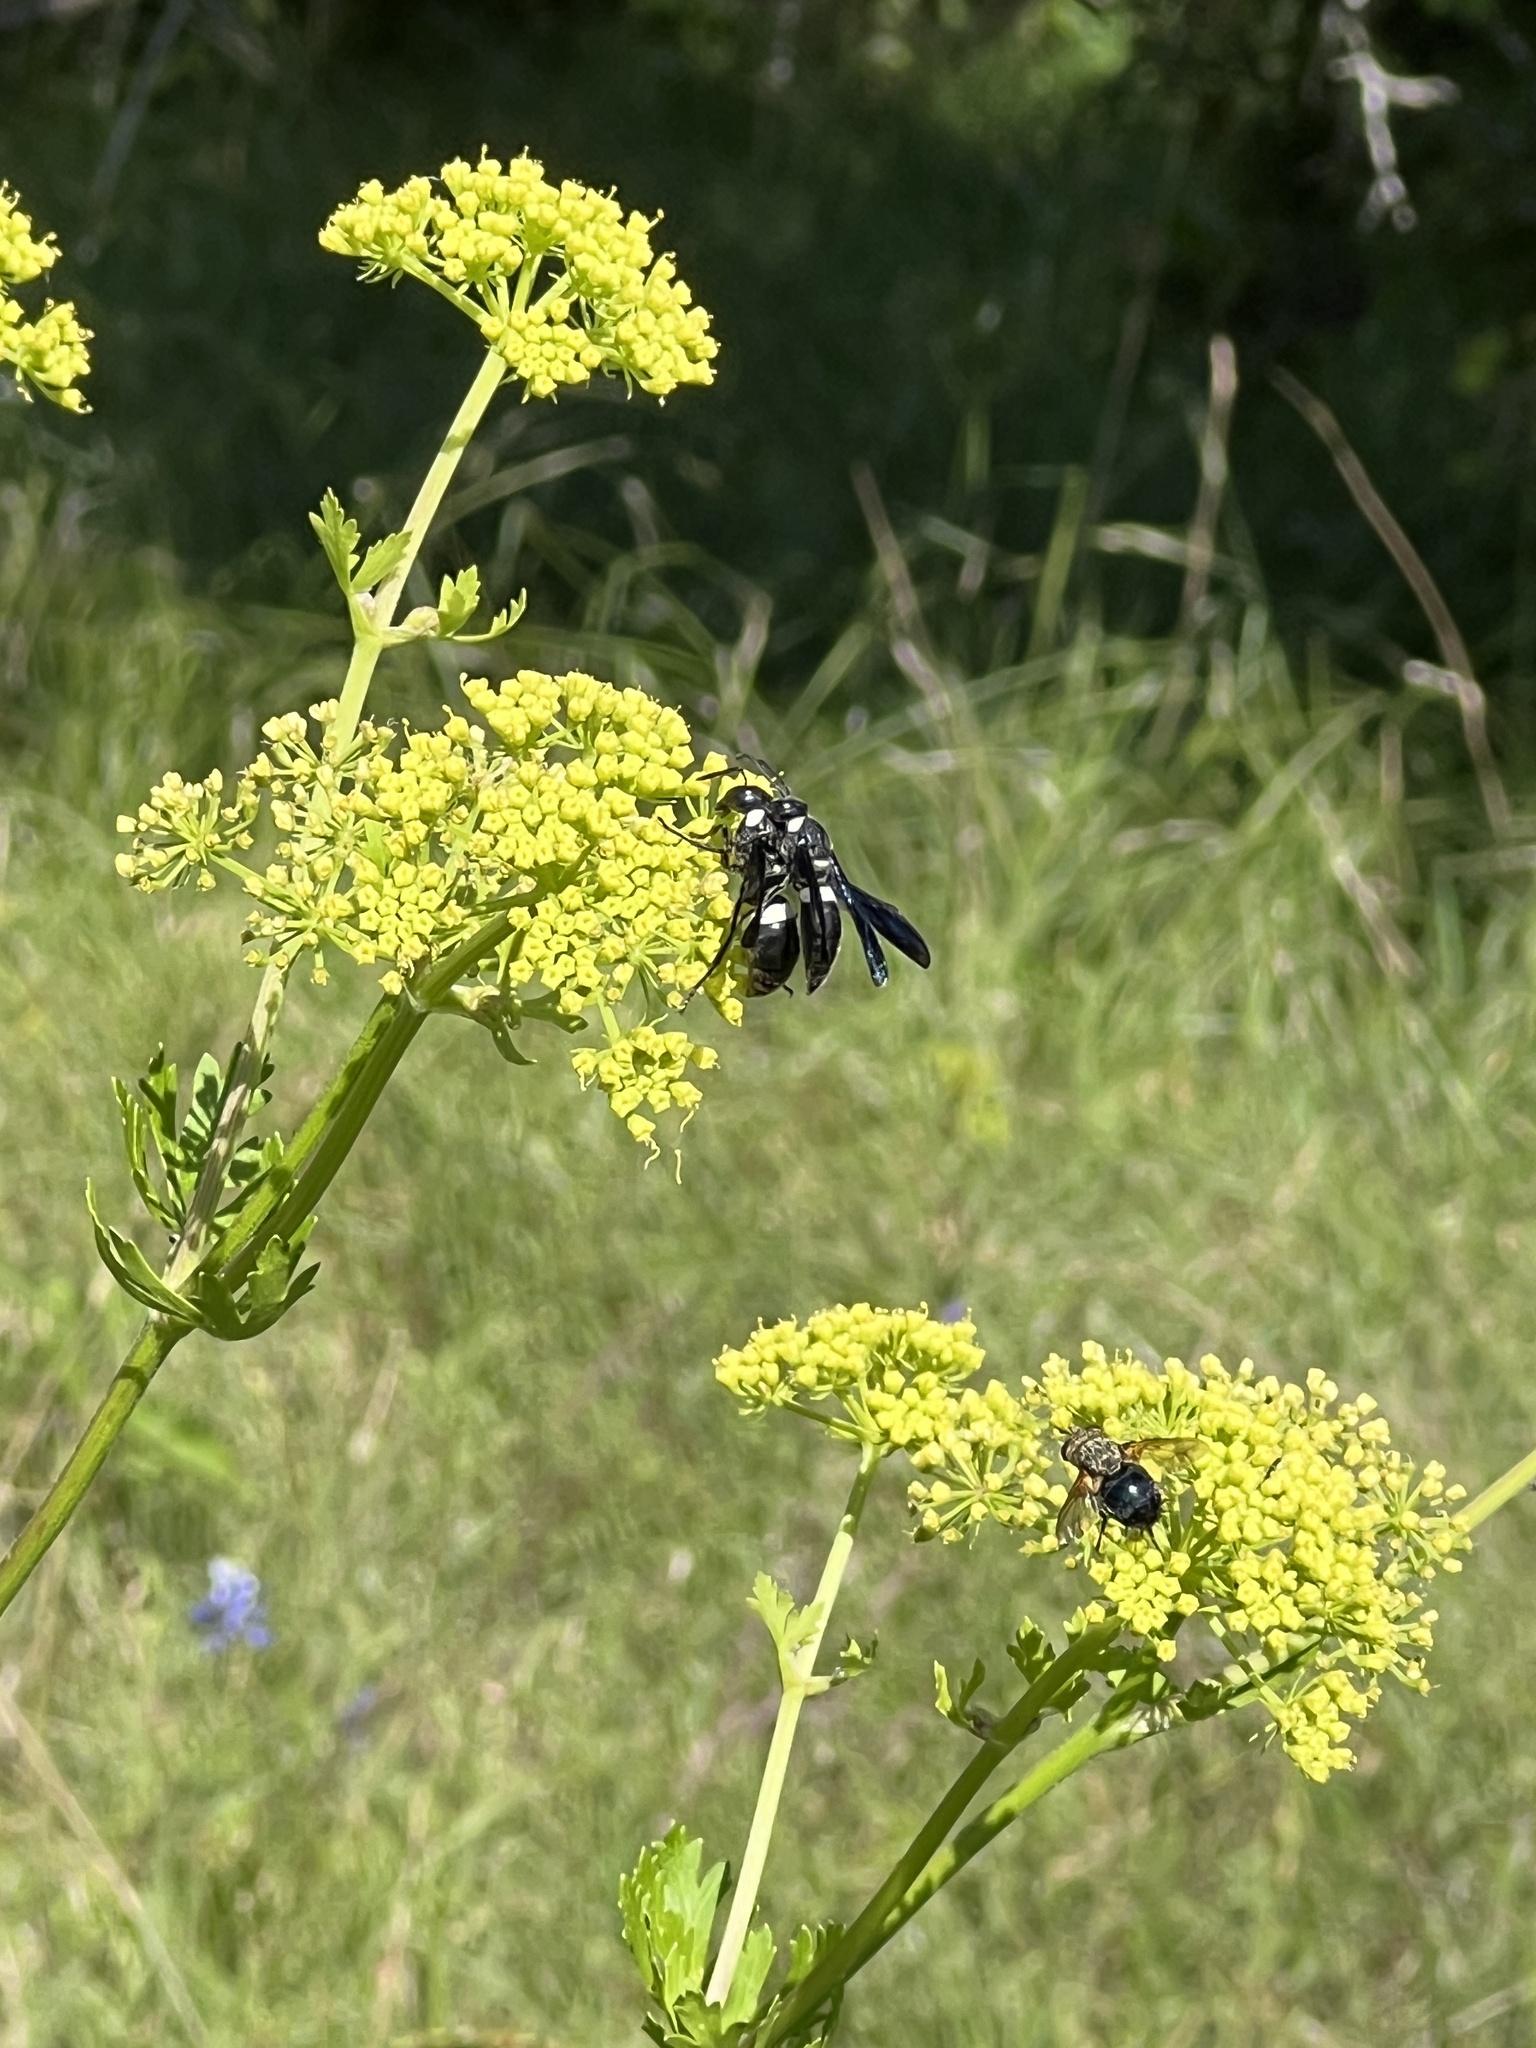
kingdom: Plantae
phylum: Tracheophyta
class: Magnoliopsida
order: Apiales
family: Apiaceae
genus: Polytaenia
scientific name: Polytaenia texana
